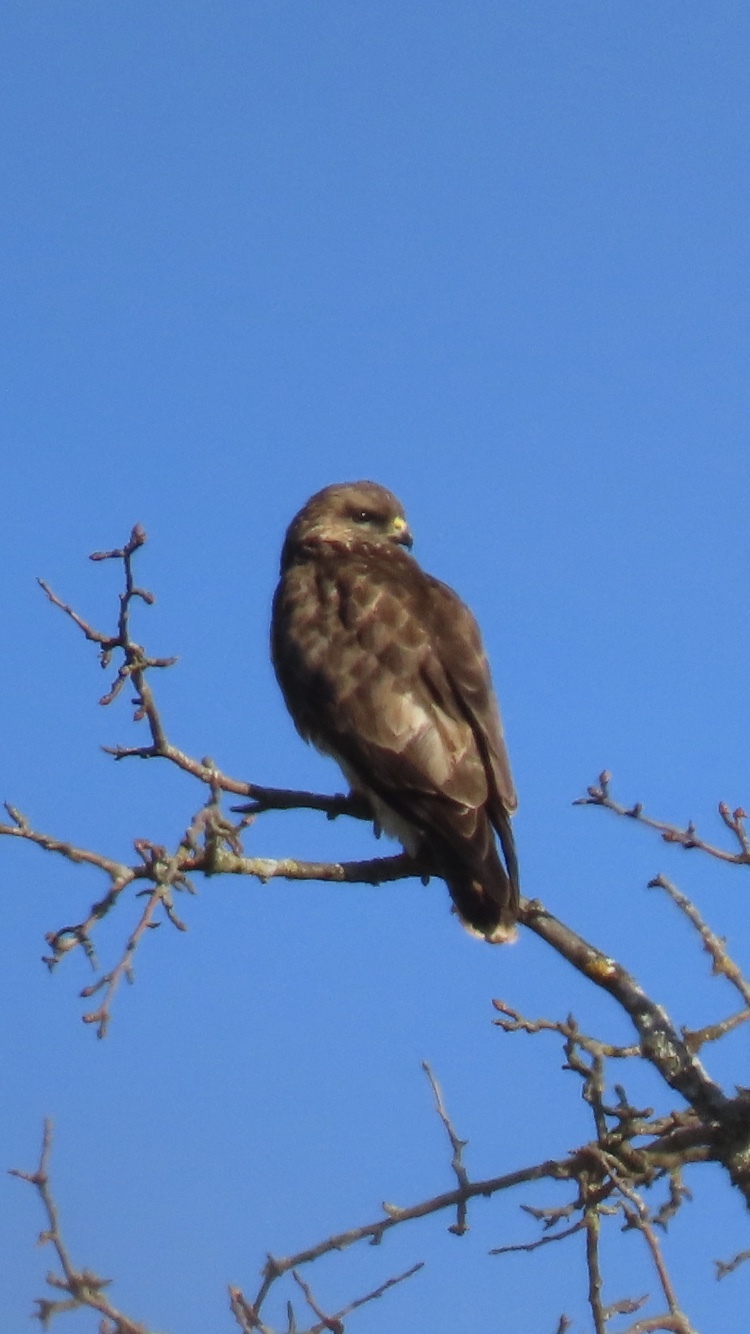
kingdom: Animalia
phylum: Chordata
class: Aves
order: Accipitriformes
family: Accipitridae
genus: Buteo
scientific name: Buteo buteo
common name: Common buzzard
